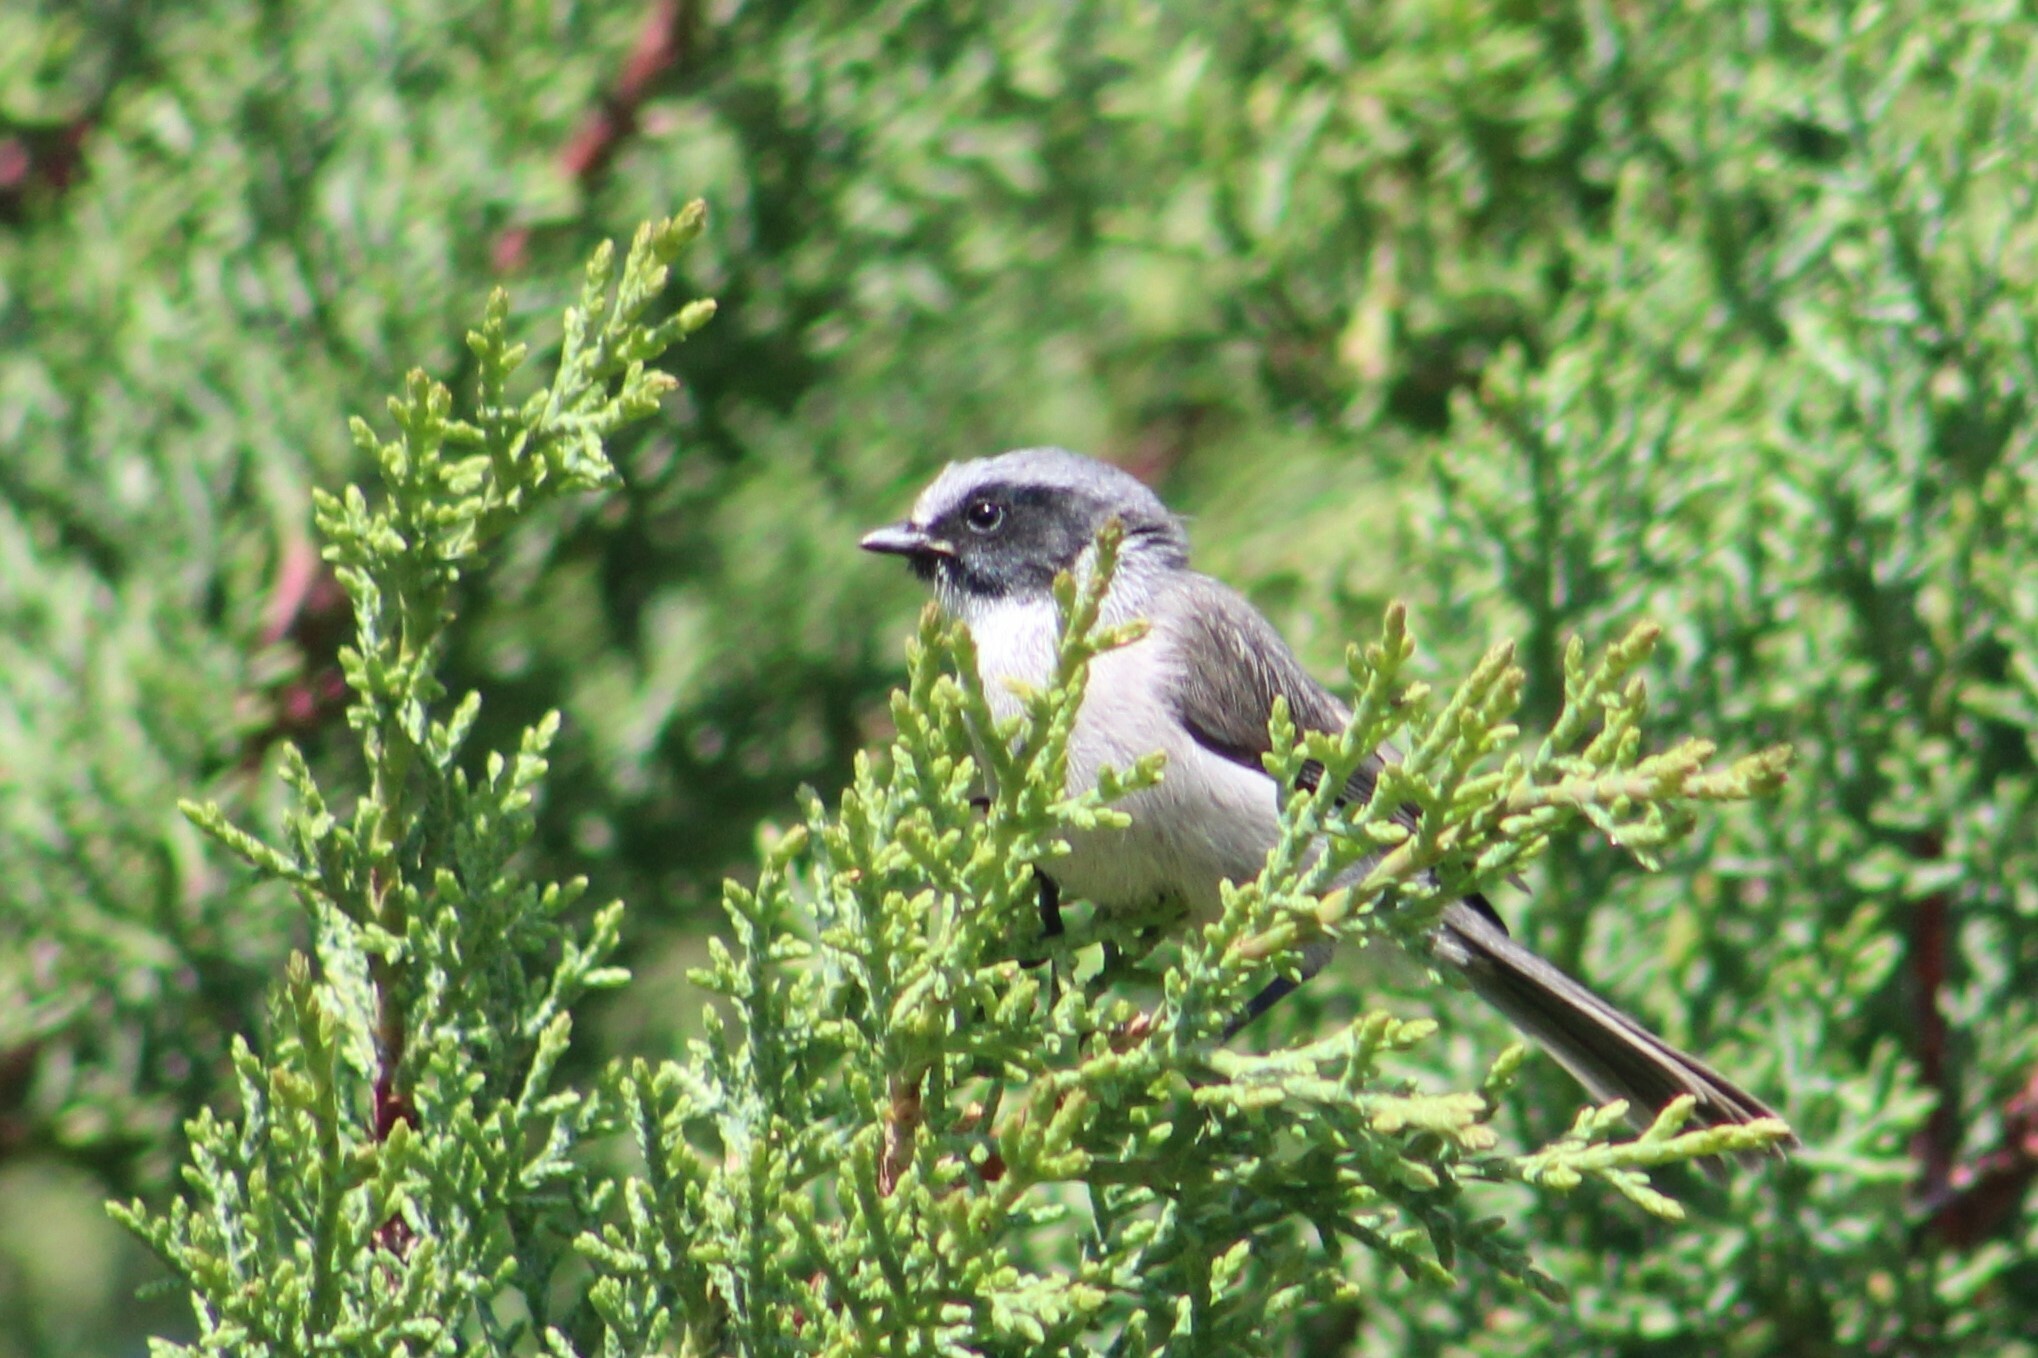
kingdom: Animalia
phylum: Chordata
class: Aves
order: Passeriformes
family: Aegithalidae
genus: Psaltriparus
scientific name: Psaltriparus minimus
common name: American bushtit
